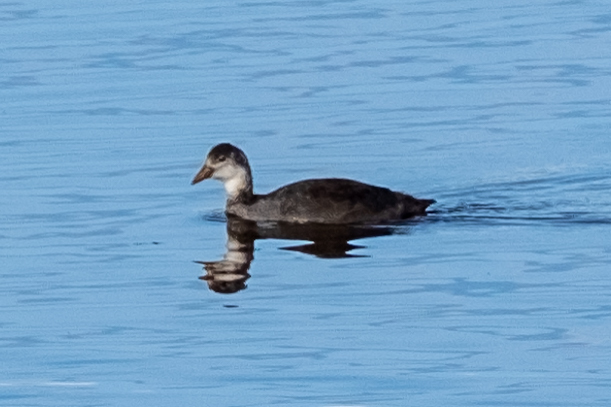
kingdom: Animalia
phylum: Chordata
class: Aves
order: Gruiformes
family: Rallidae
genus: Fulica
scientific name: Fulica atra
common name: Eurasian coot
